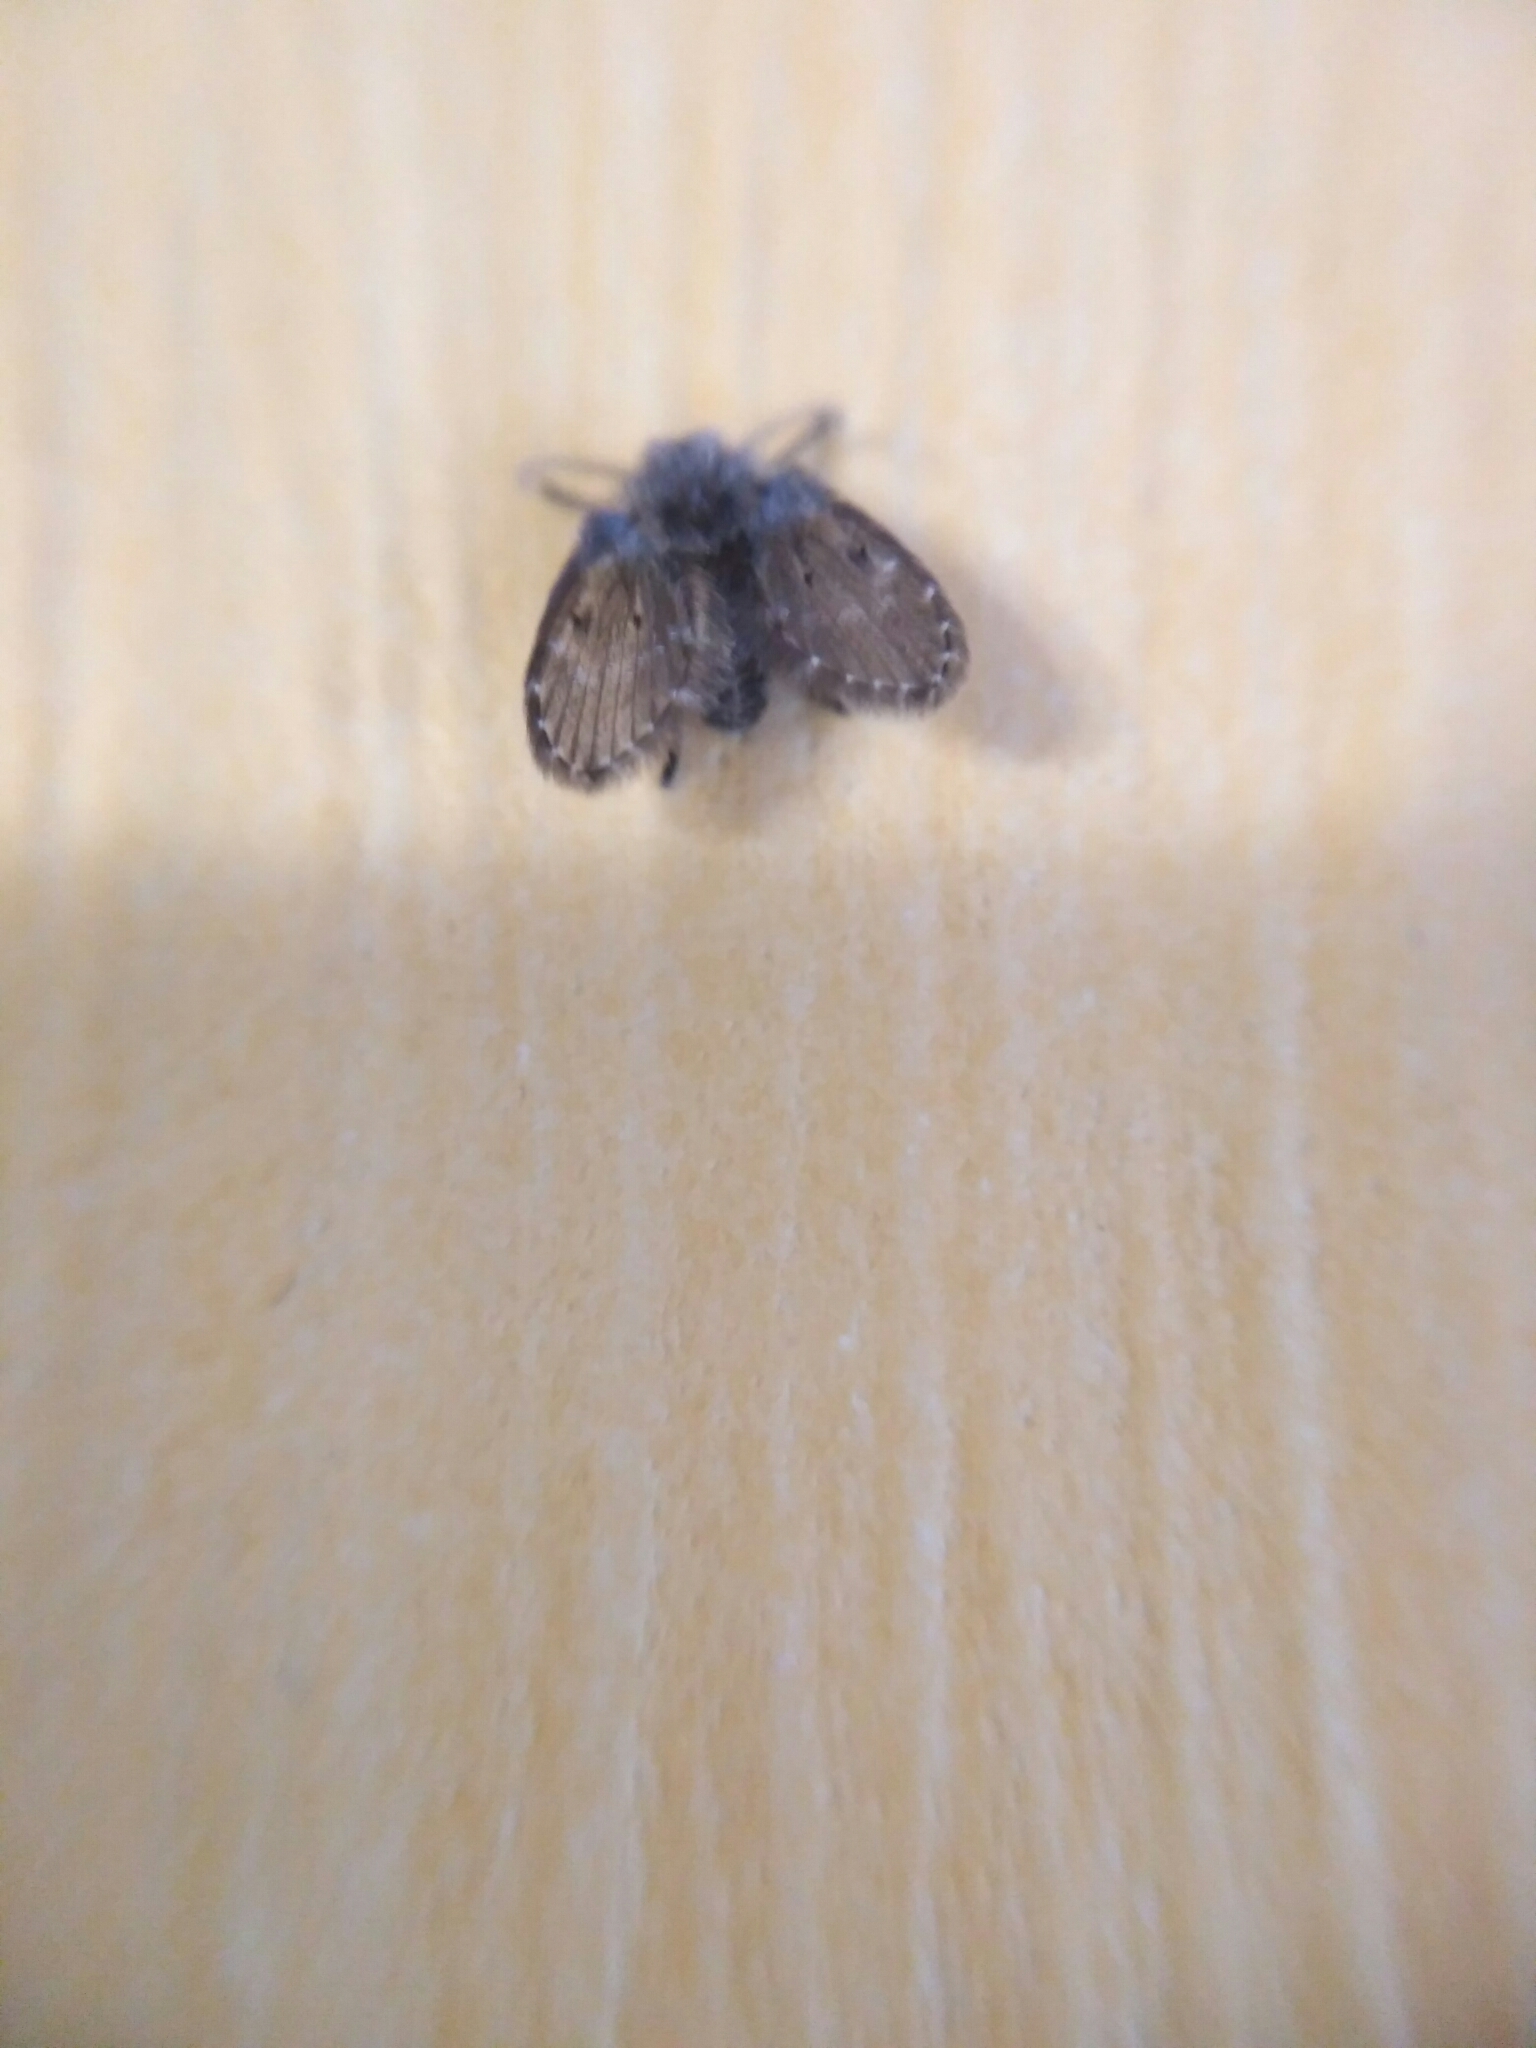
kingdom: Animalia
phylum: Arthropoda
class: Insecta
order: Diptera
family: Psychodidae
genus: Clogmia
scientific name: Clogmia albipunctatus
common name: White-spotted moth fly
